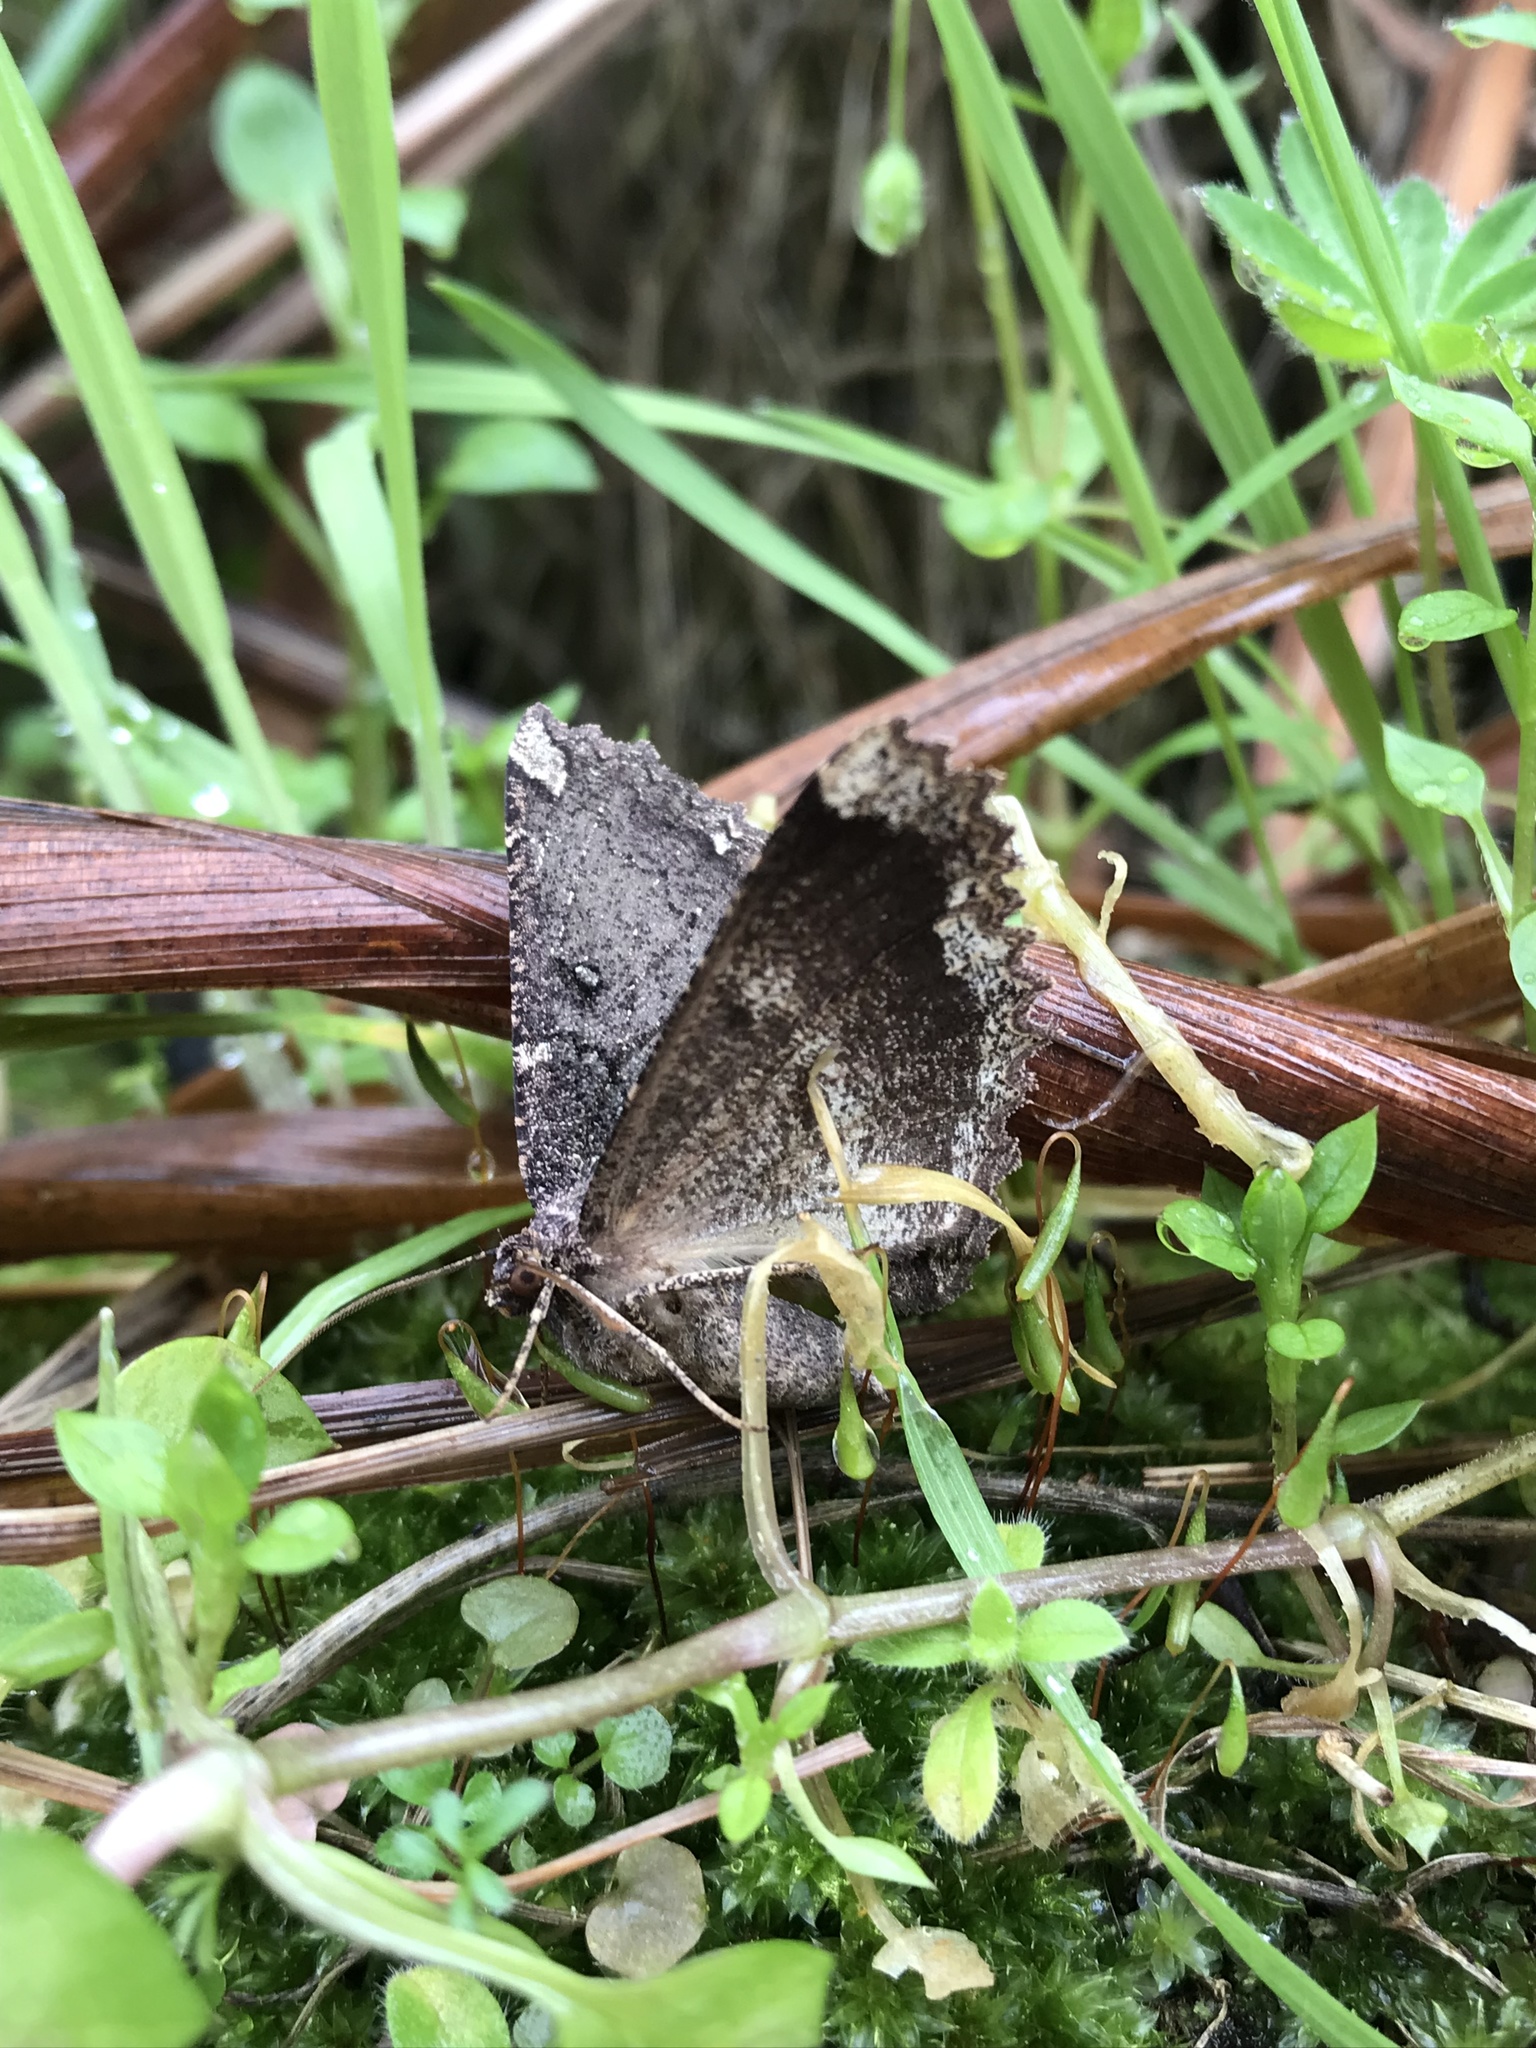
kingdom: Animalia
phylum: Arthropoda
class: Insecta
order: Lepidoptera
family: Geometridae
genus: Gellonia
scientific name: Gellonia dejectaria
